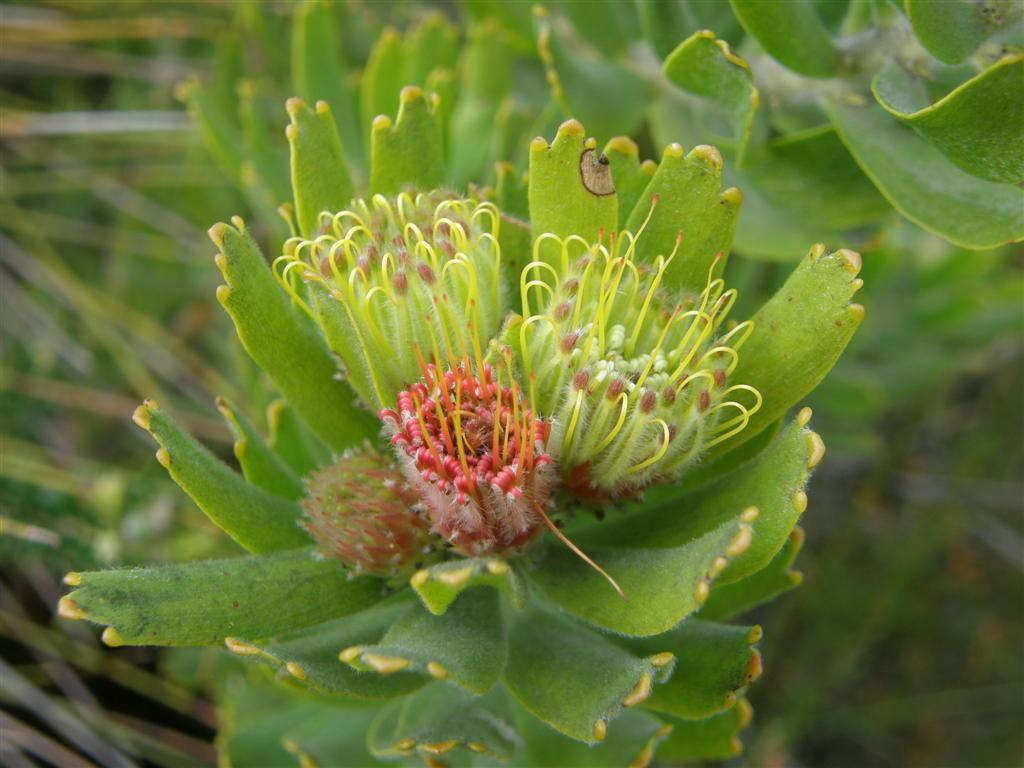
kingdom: Plantae
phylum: Tracheophyta
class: Magnoliopsida
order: Proteales
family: Proteaceae
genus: Leucospermum
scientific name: Leucospermum oleifolium
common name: Matches
